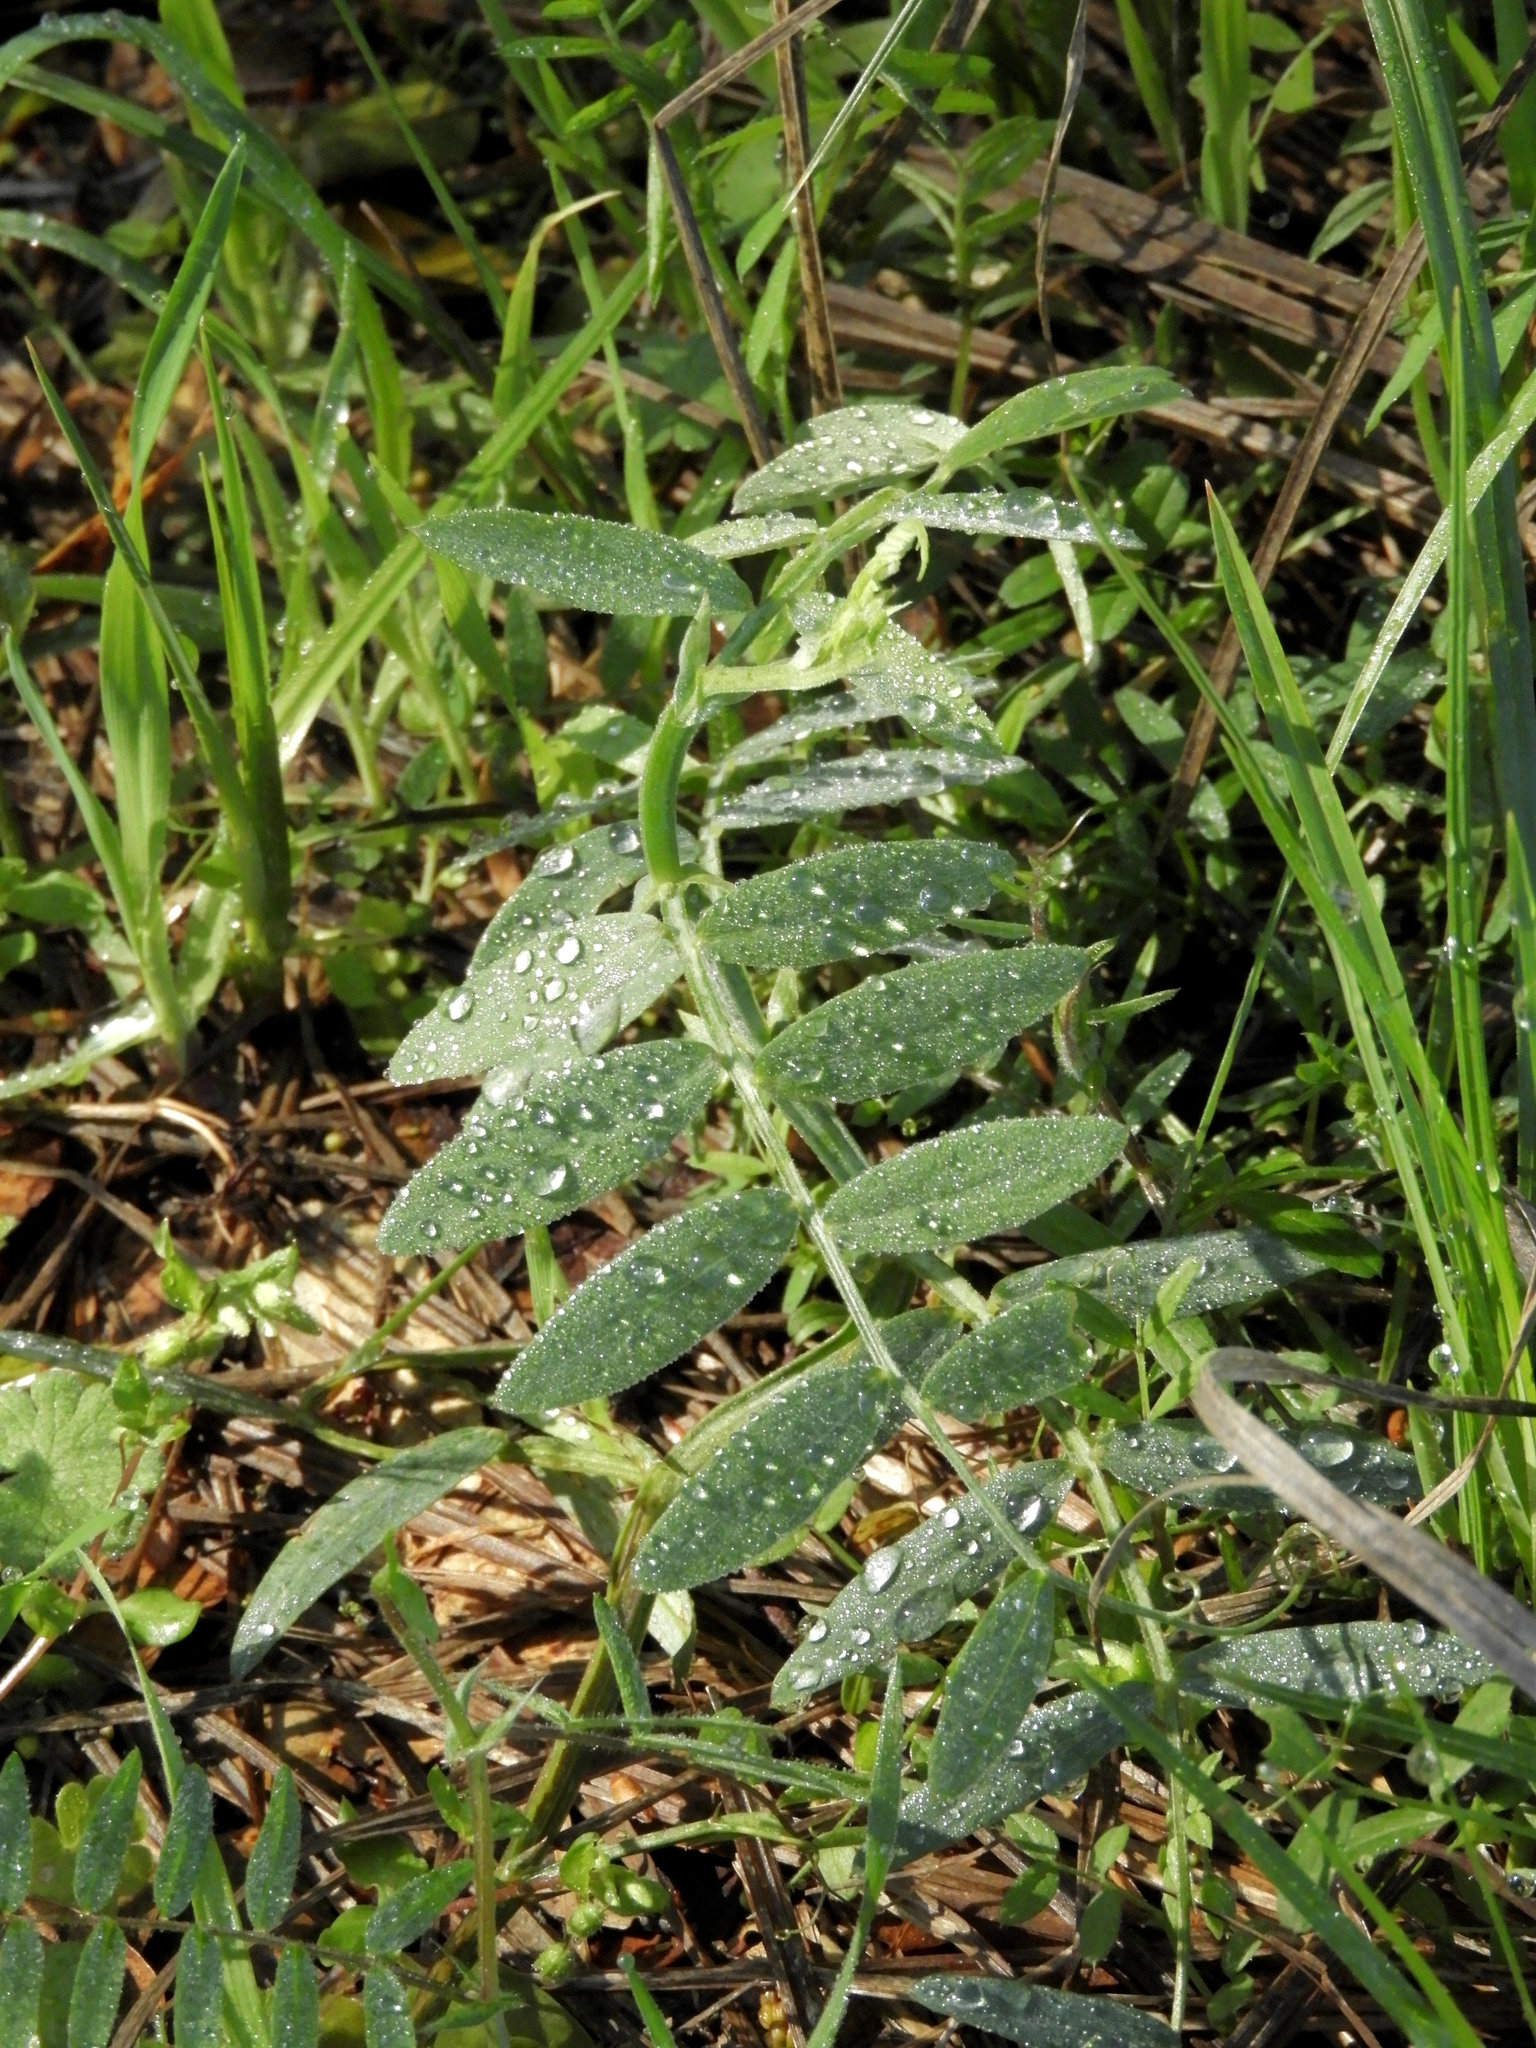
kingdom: Plantae
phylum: Tracheophyta
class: Magnoliopsida
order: Fabales
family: Fabaceae
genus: Lathyrus
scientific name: Lathyrus jepsonii
